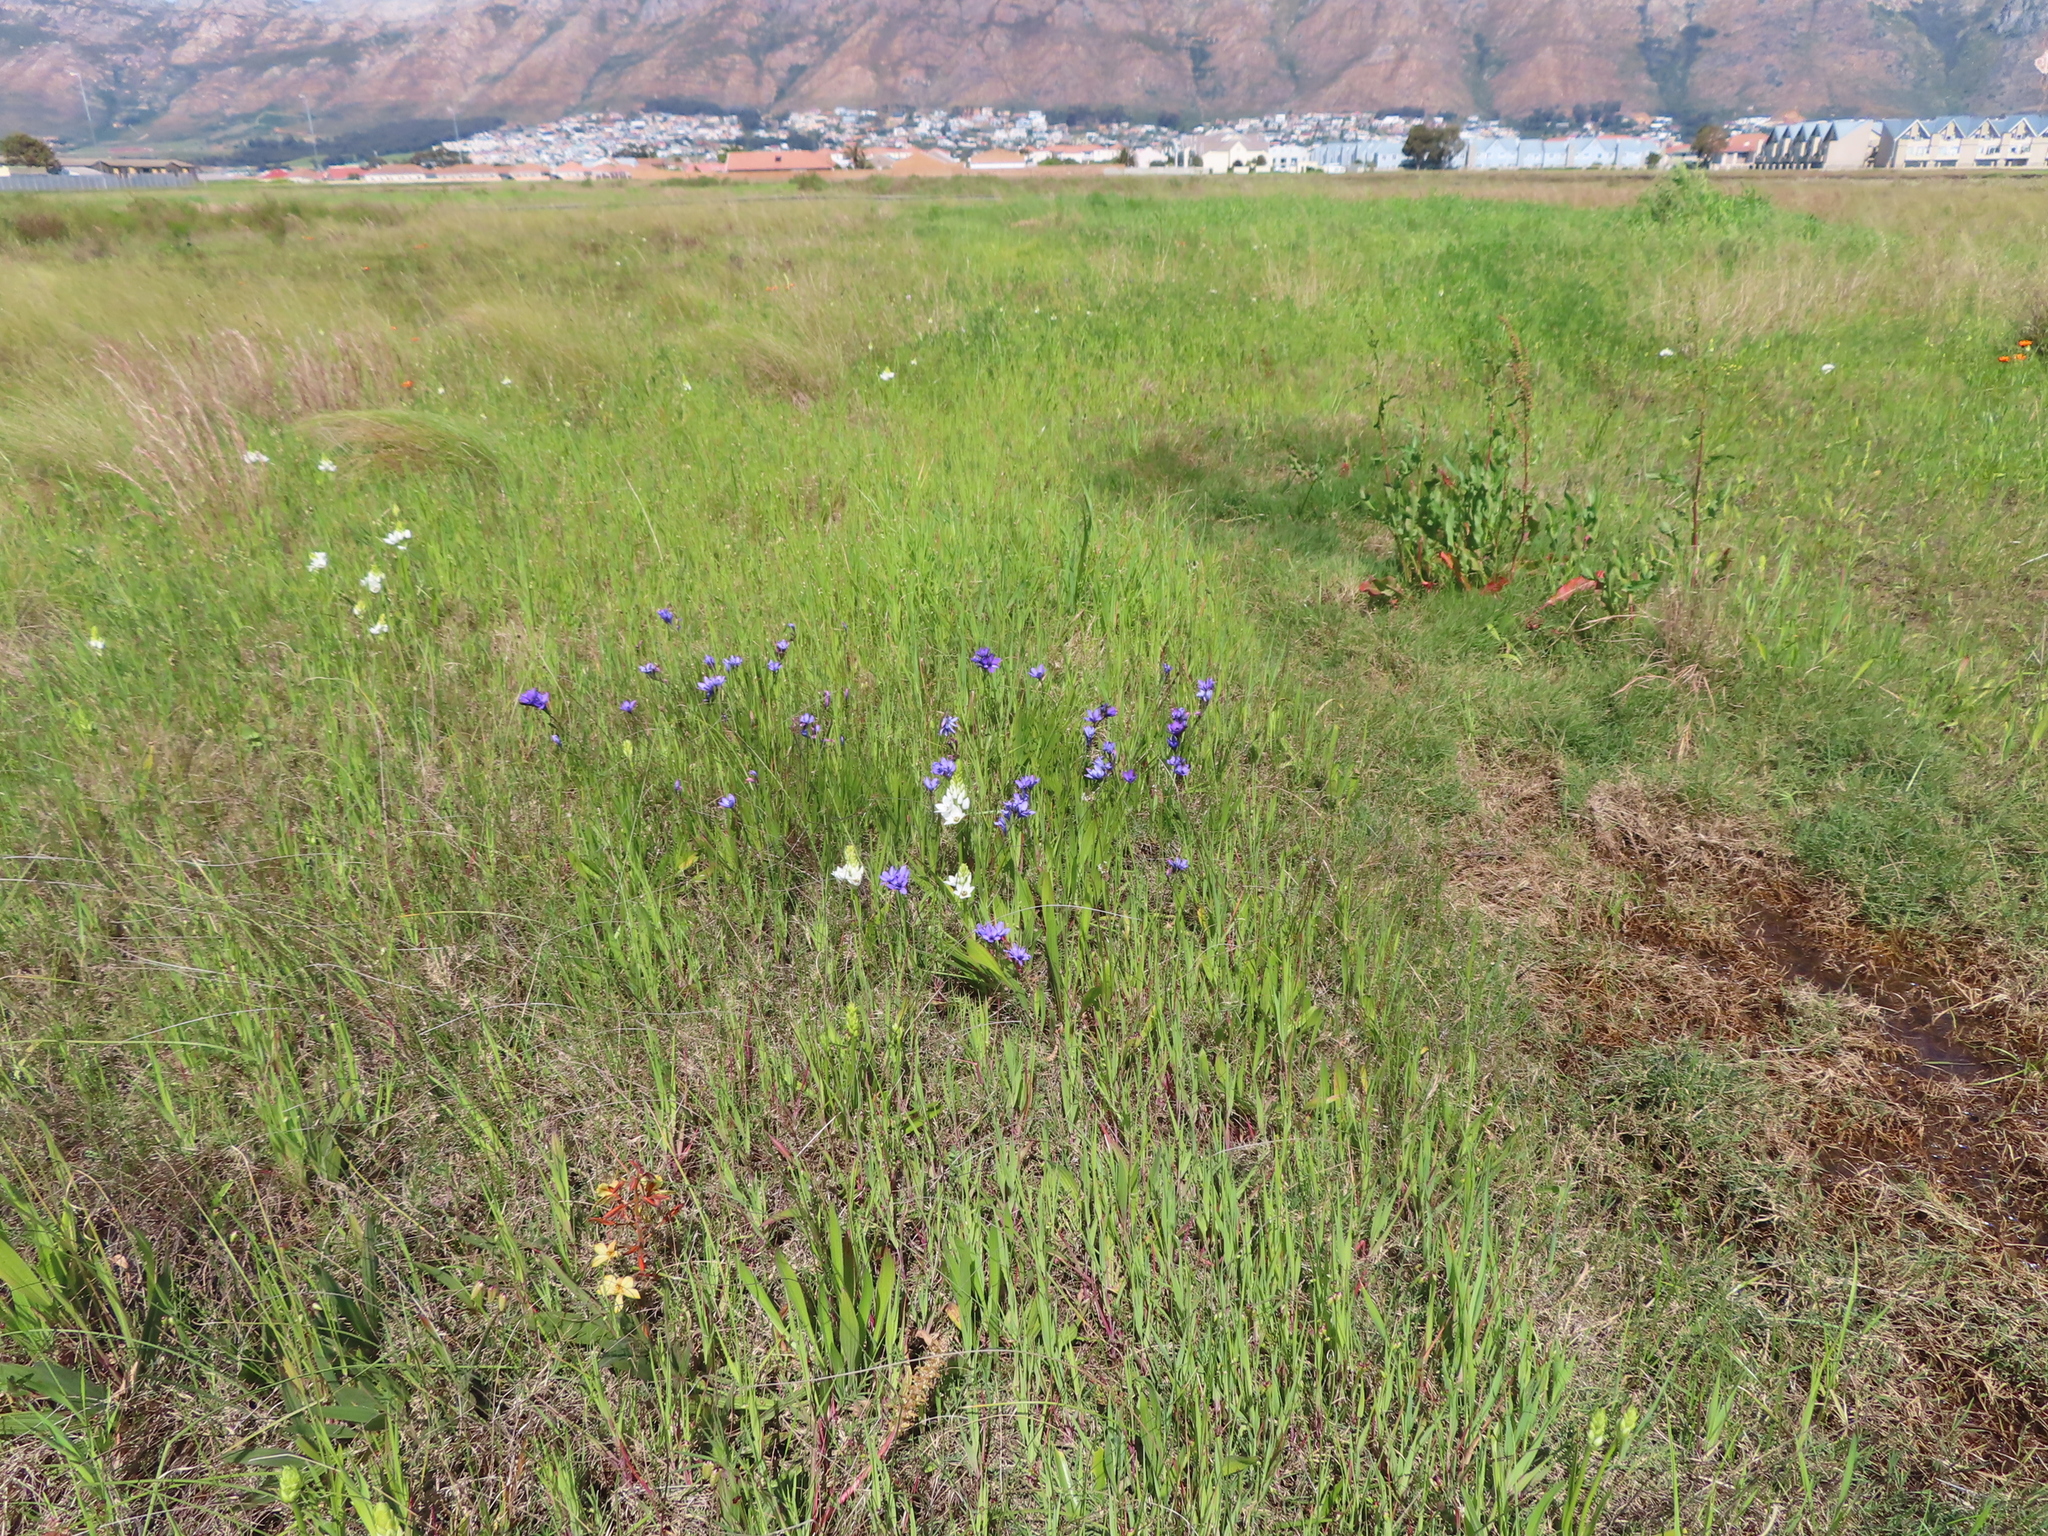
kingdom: Plantae
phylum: Tracheophyta
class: Liliopsida
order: Asparagales
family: Iridaceae
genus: Babiana
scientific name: Babiana angustifolia
